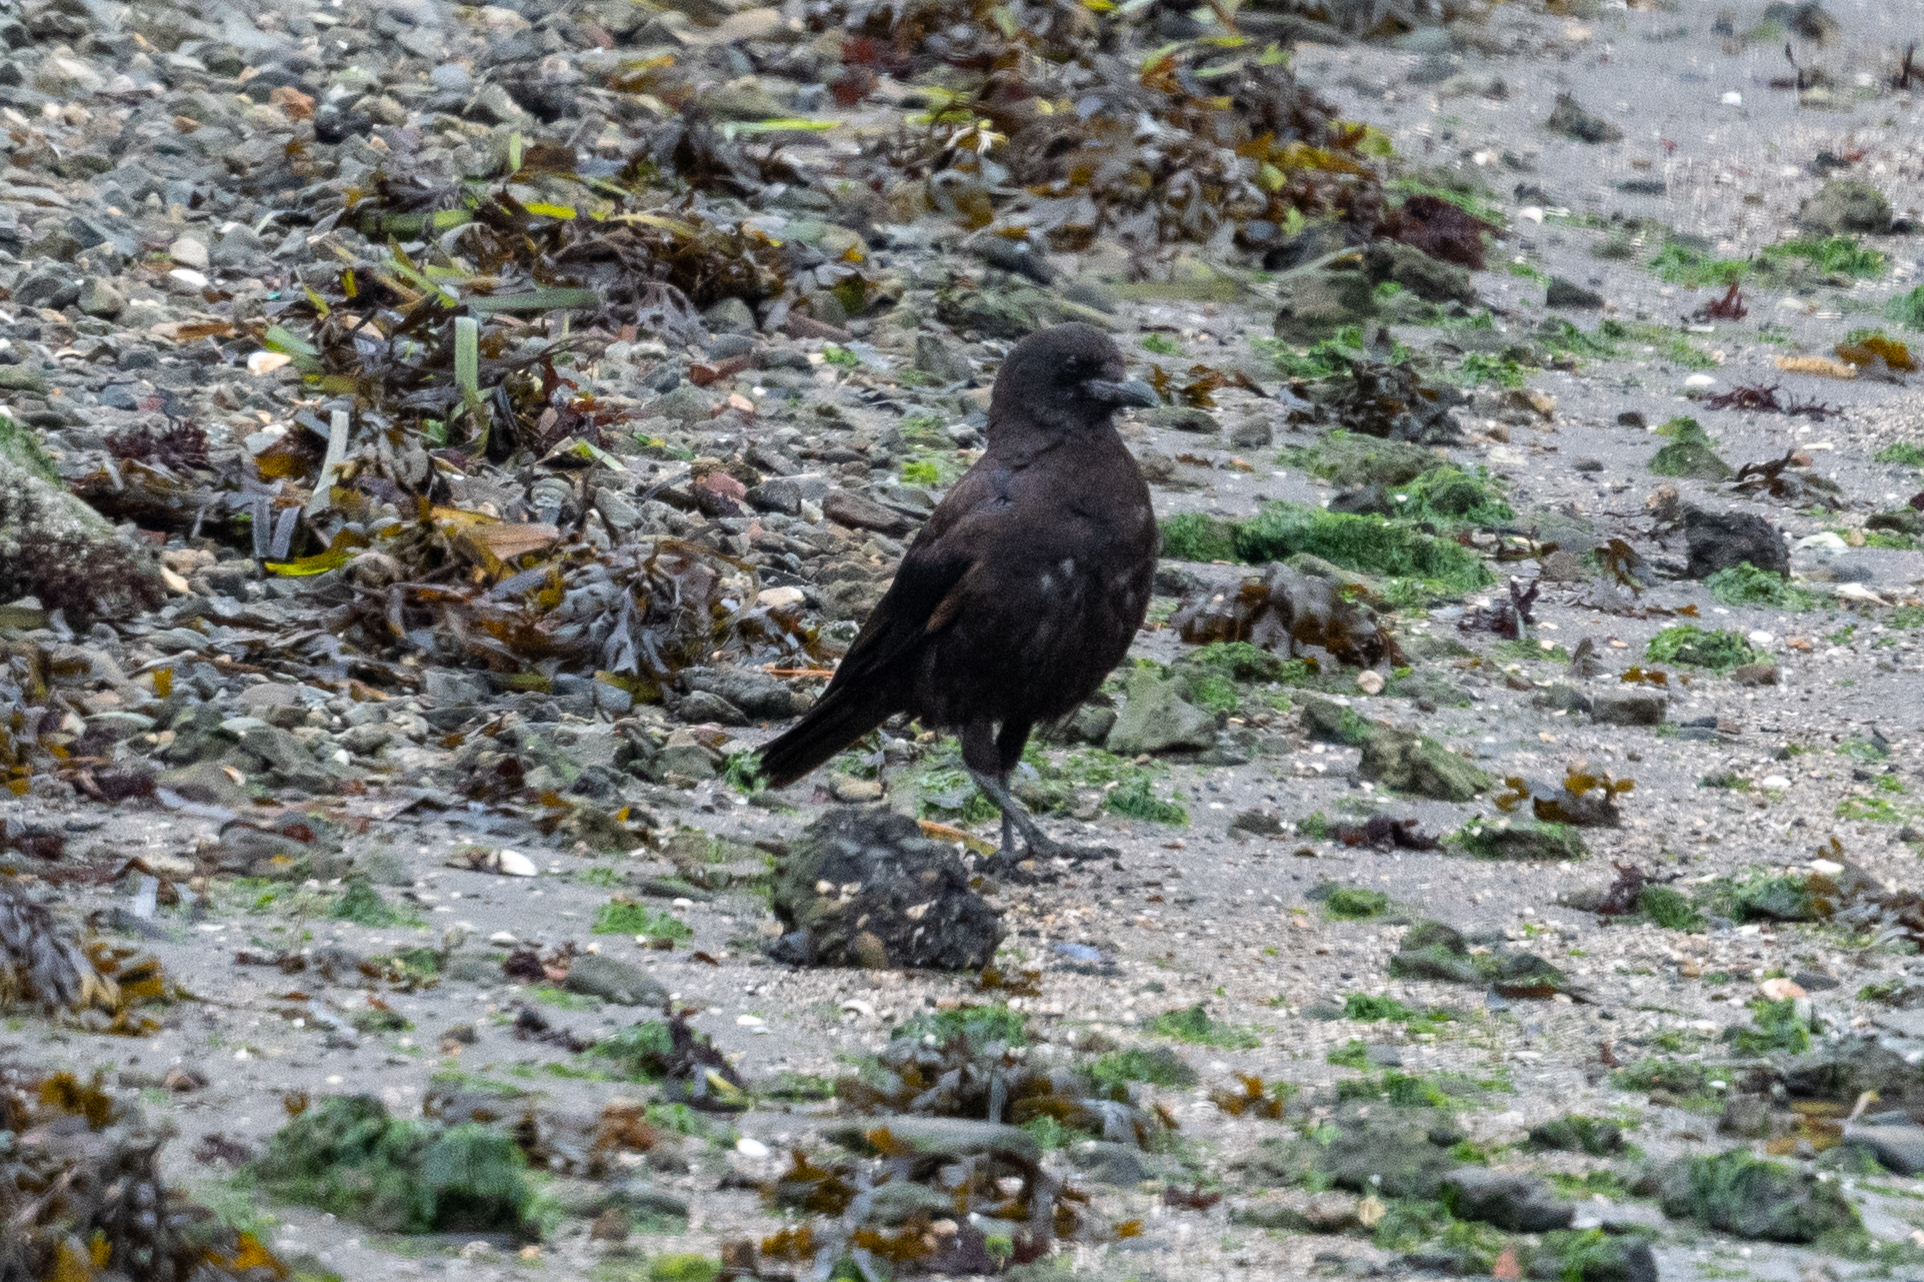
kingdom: Animalia
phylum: Chordata
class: Aves
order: Passeriformes
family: Corvidae
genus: Corvus
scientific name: Corvus brachyrhynchos
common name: American crow
